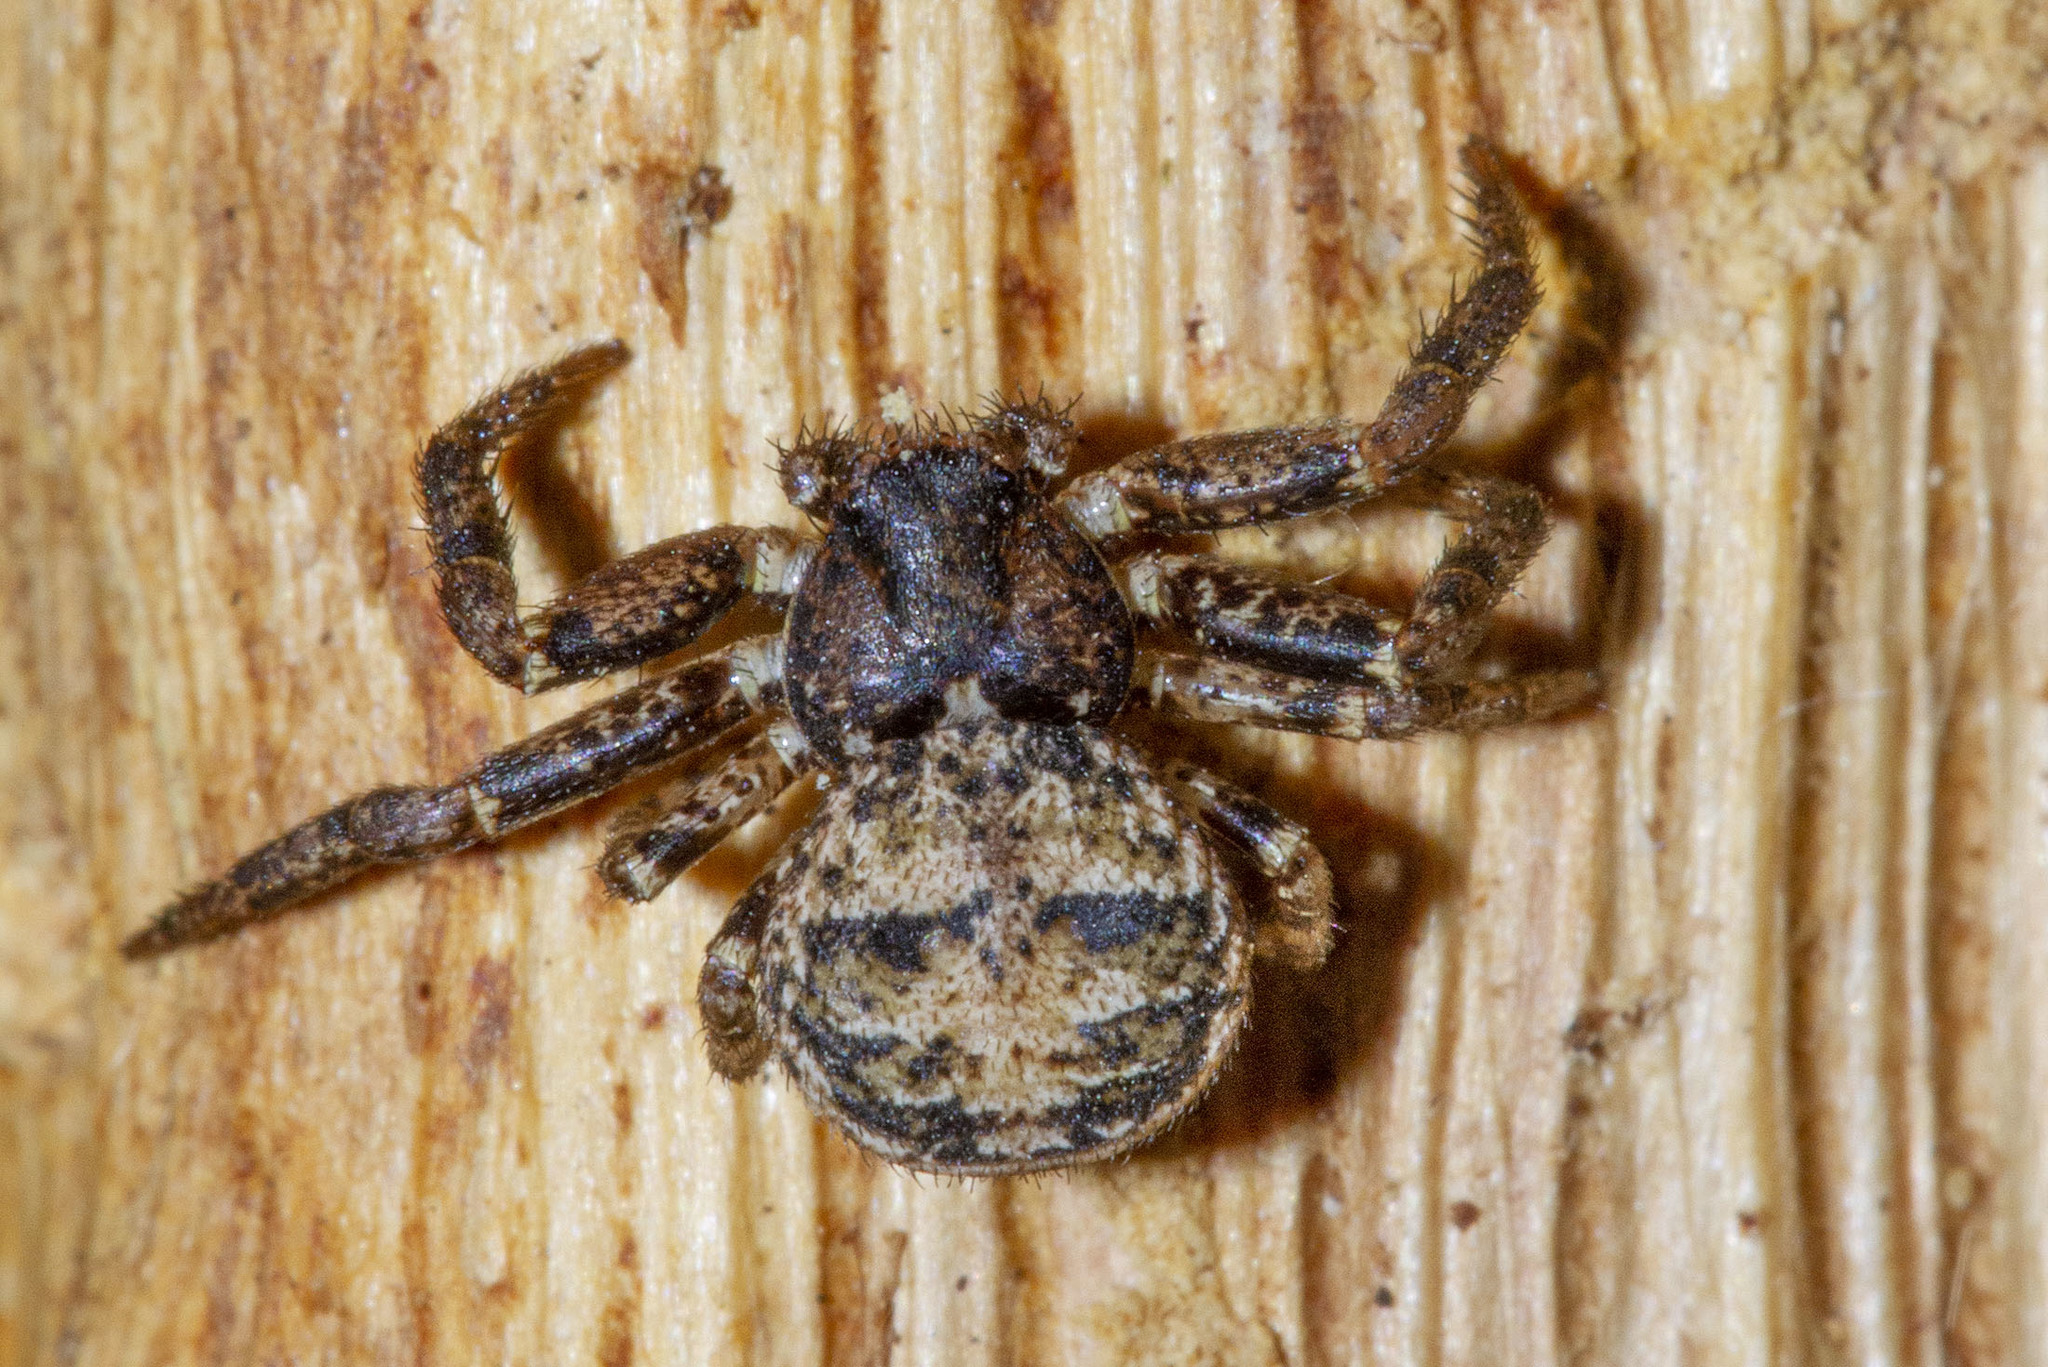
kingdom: Animalia
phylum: Arthropoda
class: Arachnida
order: Araneae
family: Thomisidae
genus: Bassaniana
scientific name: Bassaniana versicolor
